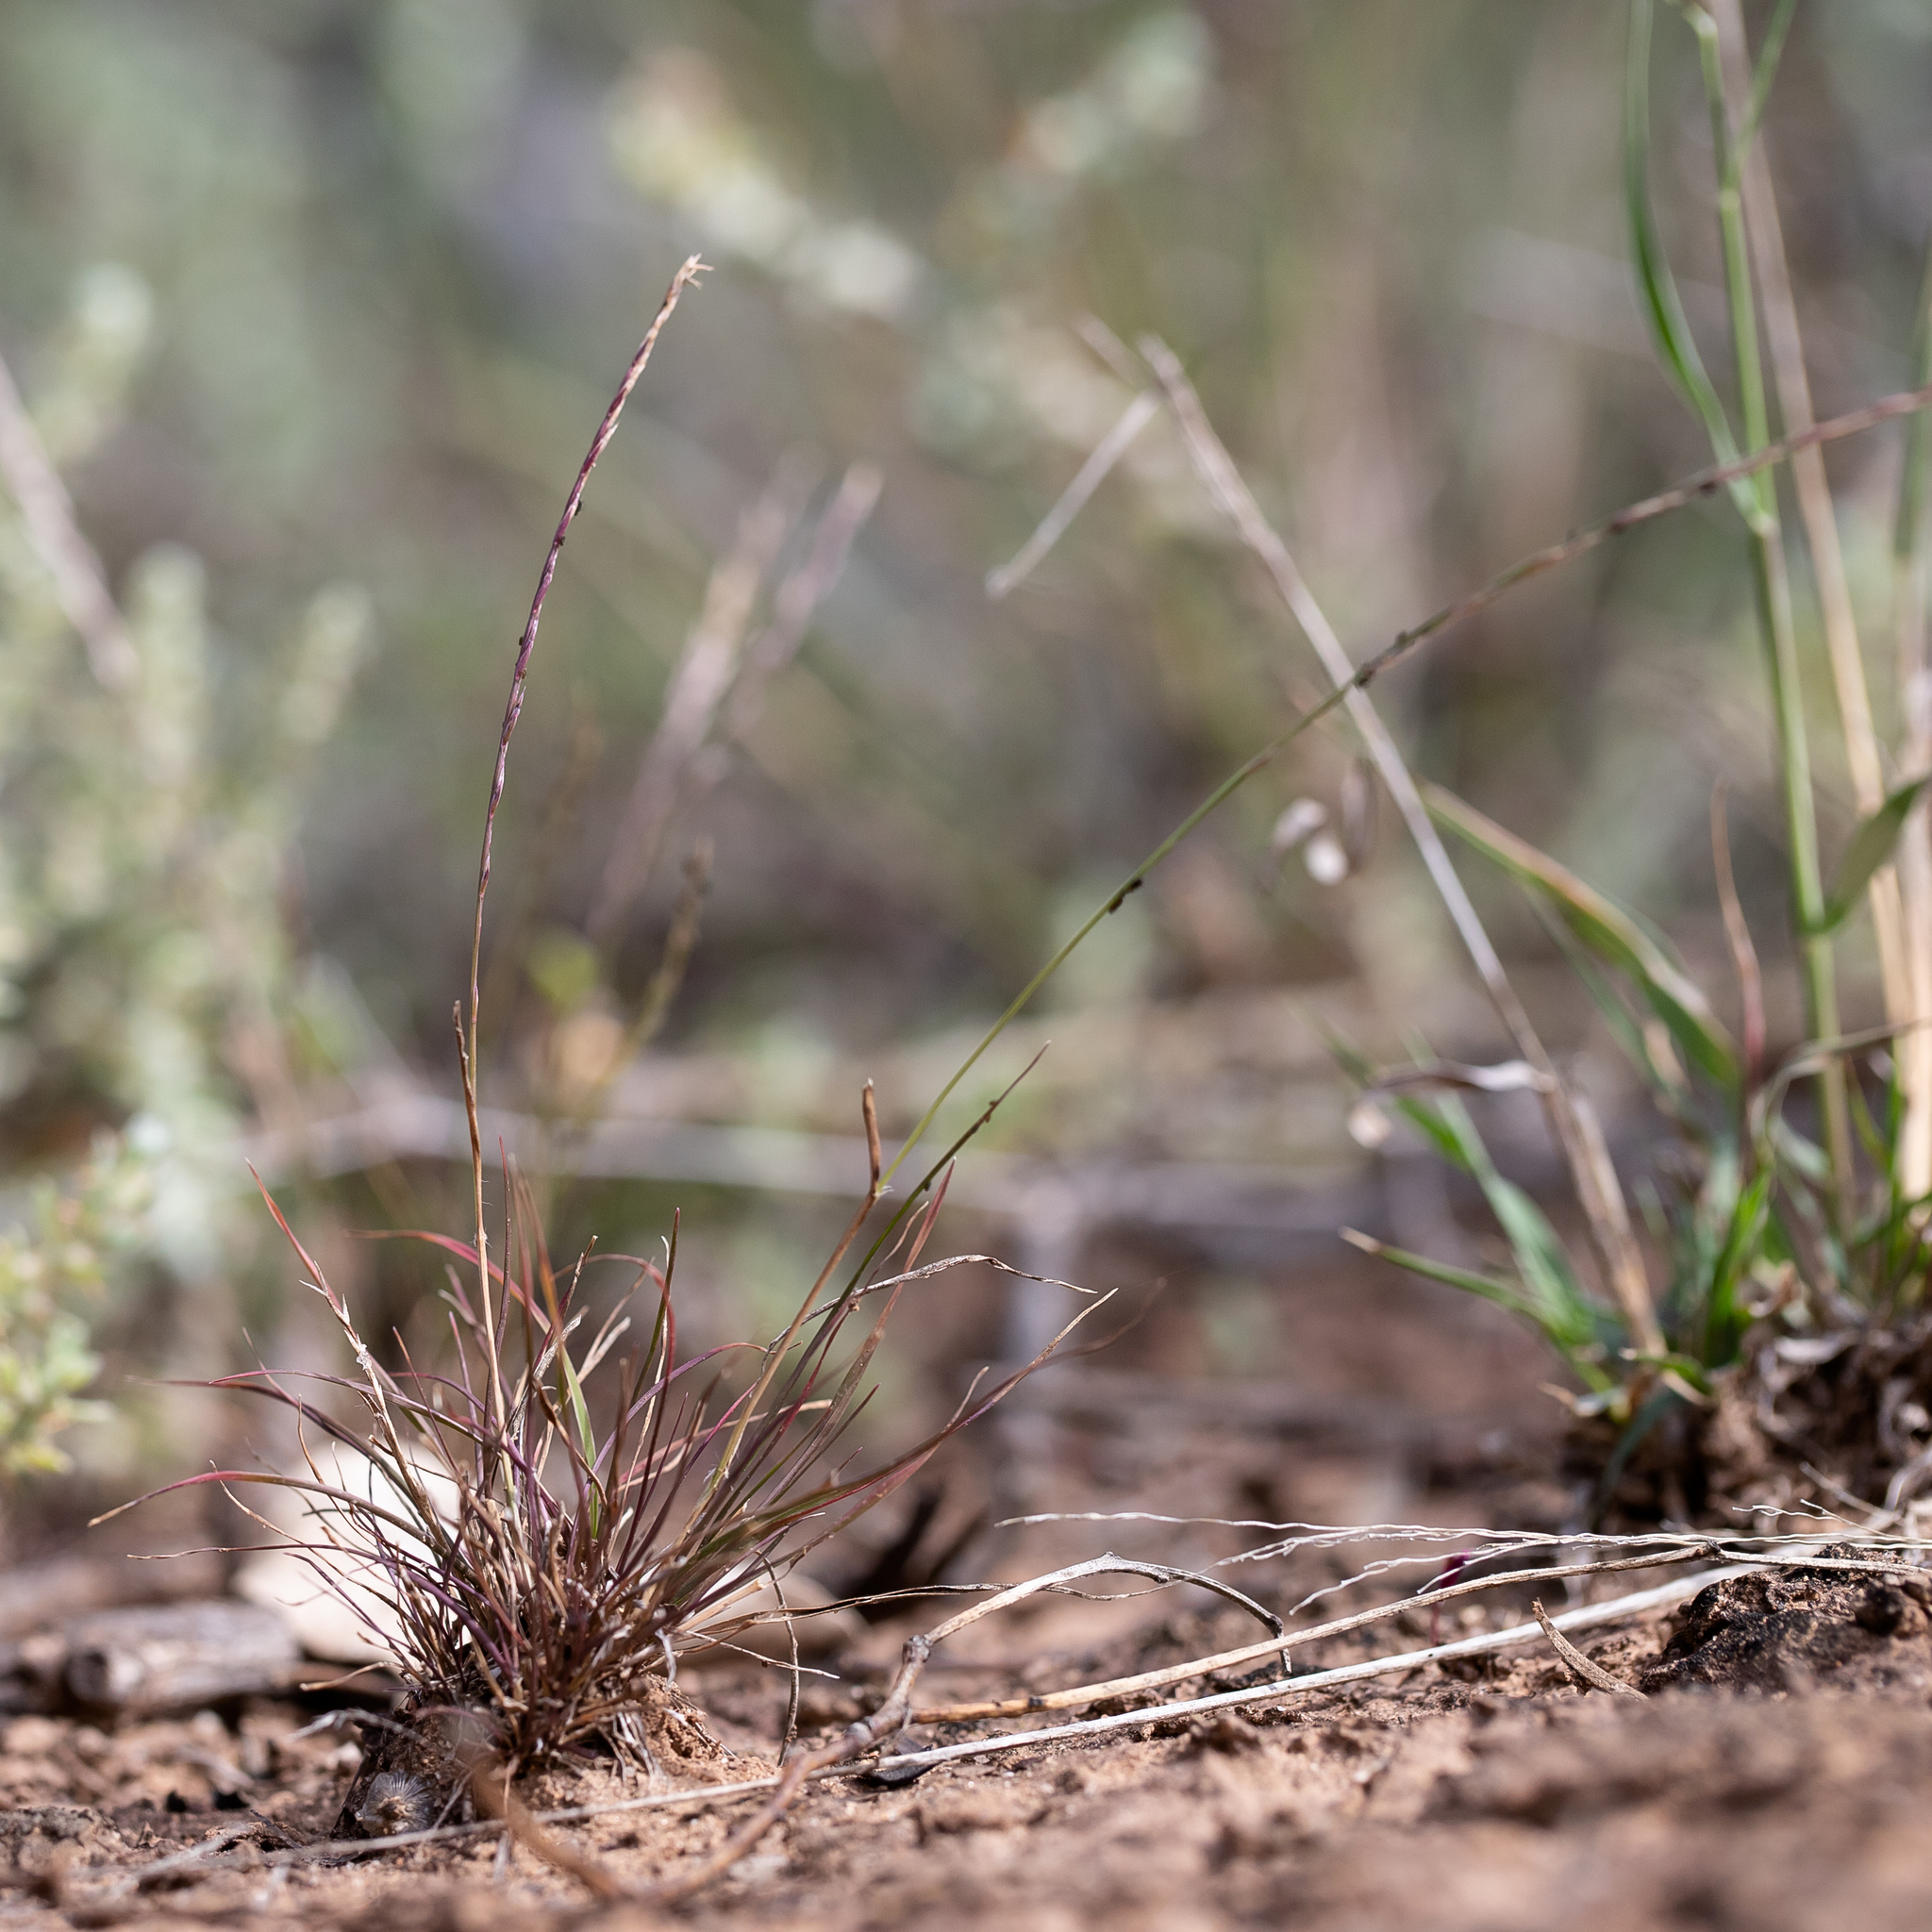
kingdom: Plantae
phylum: Tracheophyta
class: Liliopsida
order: Poales
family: Poaceae
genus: Tripogonella
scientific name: Tripogonella loliiformis
